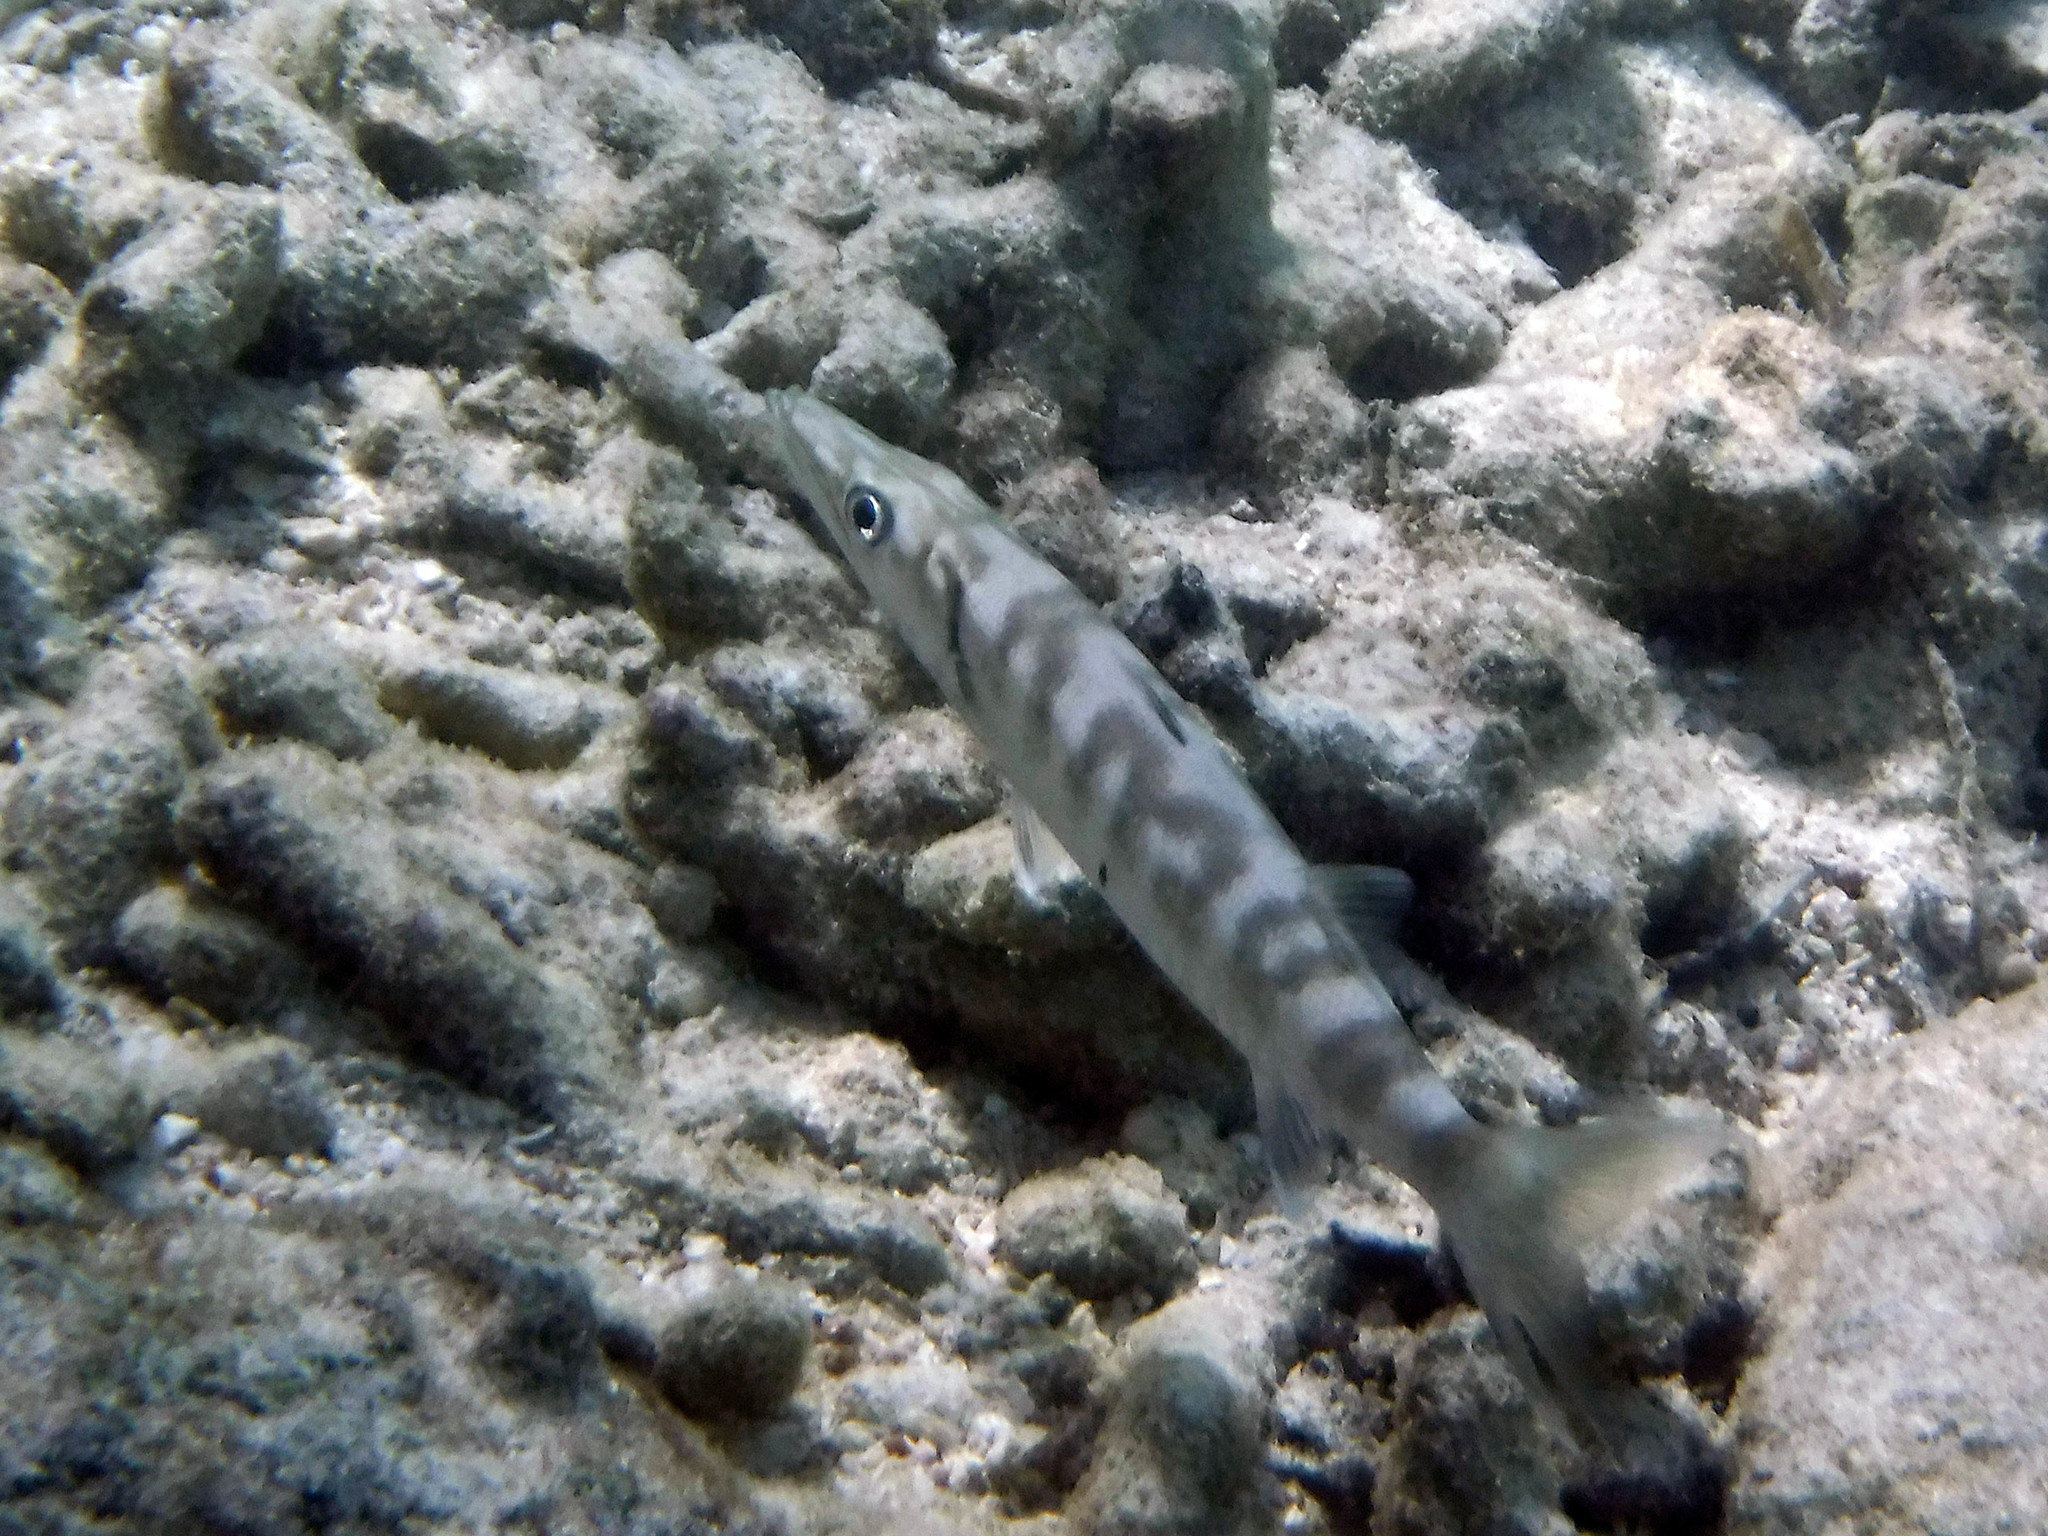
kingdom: Animalia
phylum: Chordata
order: Perciformes
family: Sphyraenidae
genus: Sphyraena
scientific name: Sphyraena barracuda
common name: Great barracuda
